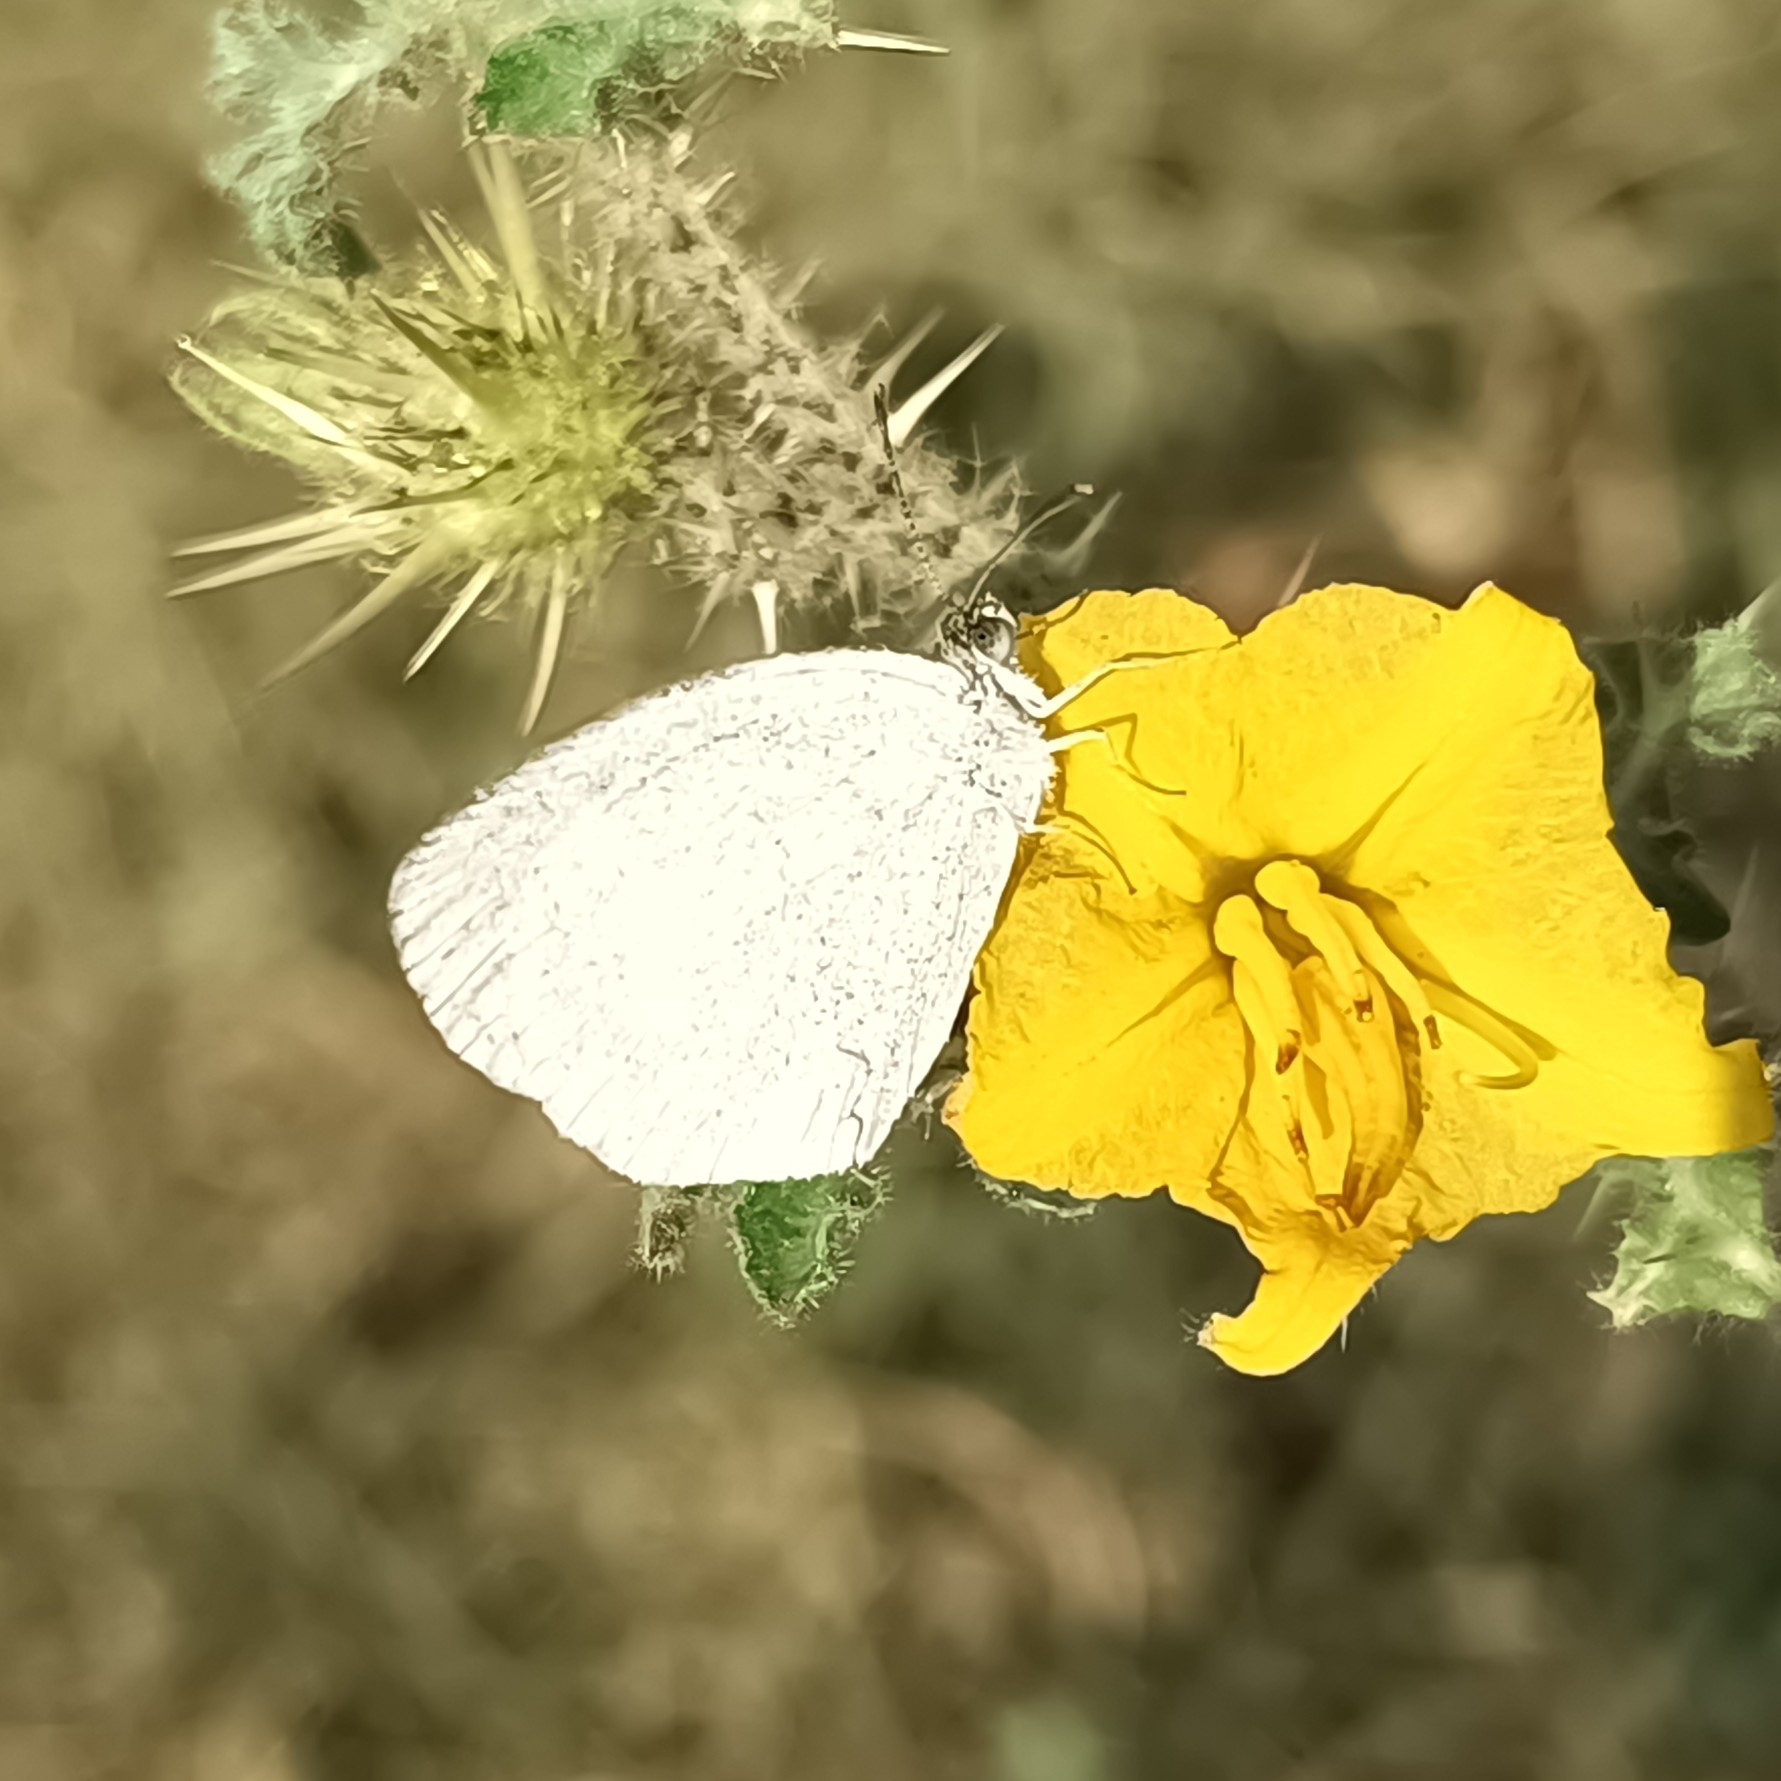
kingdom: Animalia
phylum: Arthropoda
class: Insecta
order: Lepidoptera
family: Pieridae
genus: Eurema
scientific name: Eurema daira
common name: Barred sulphur
